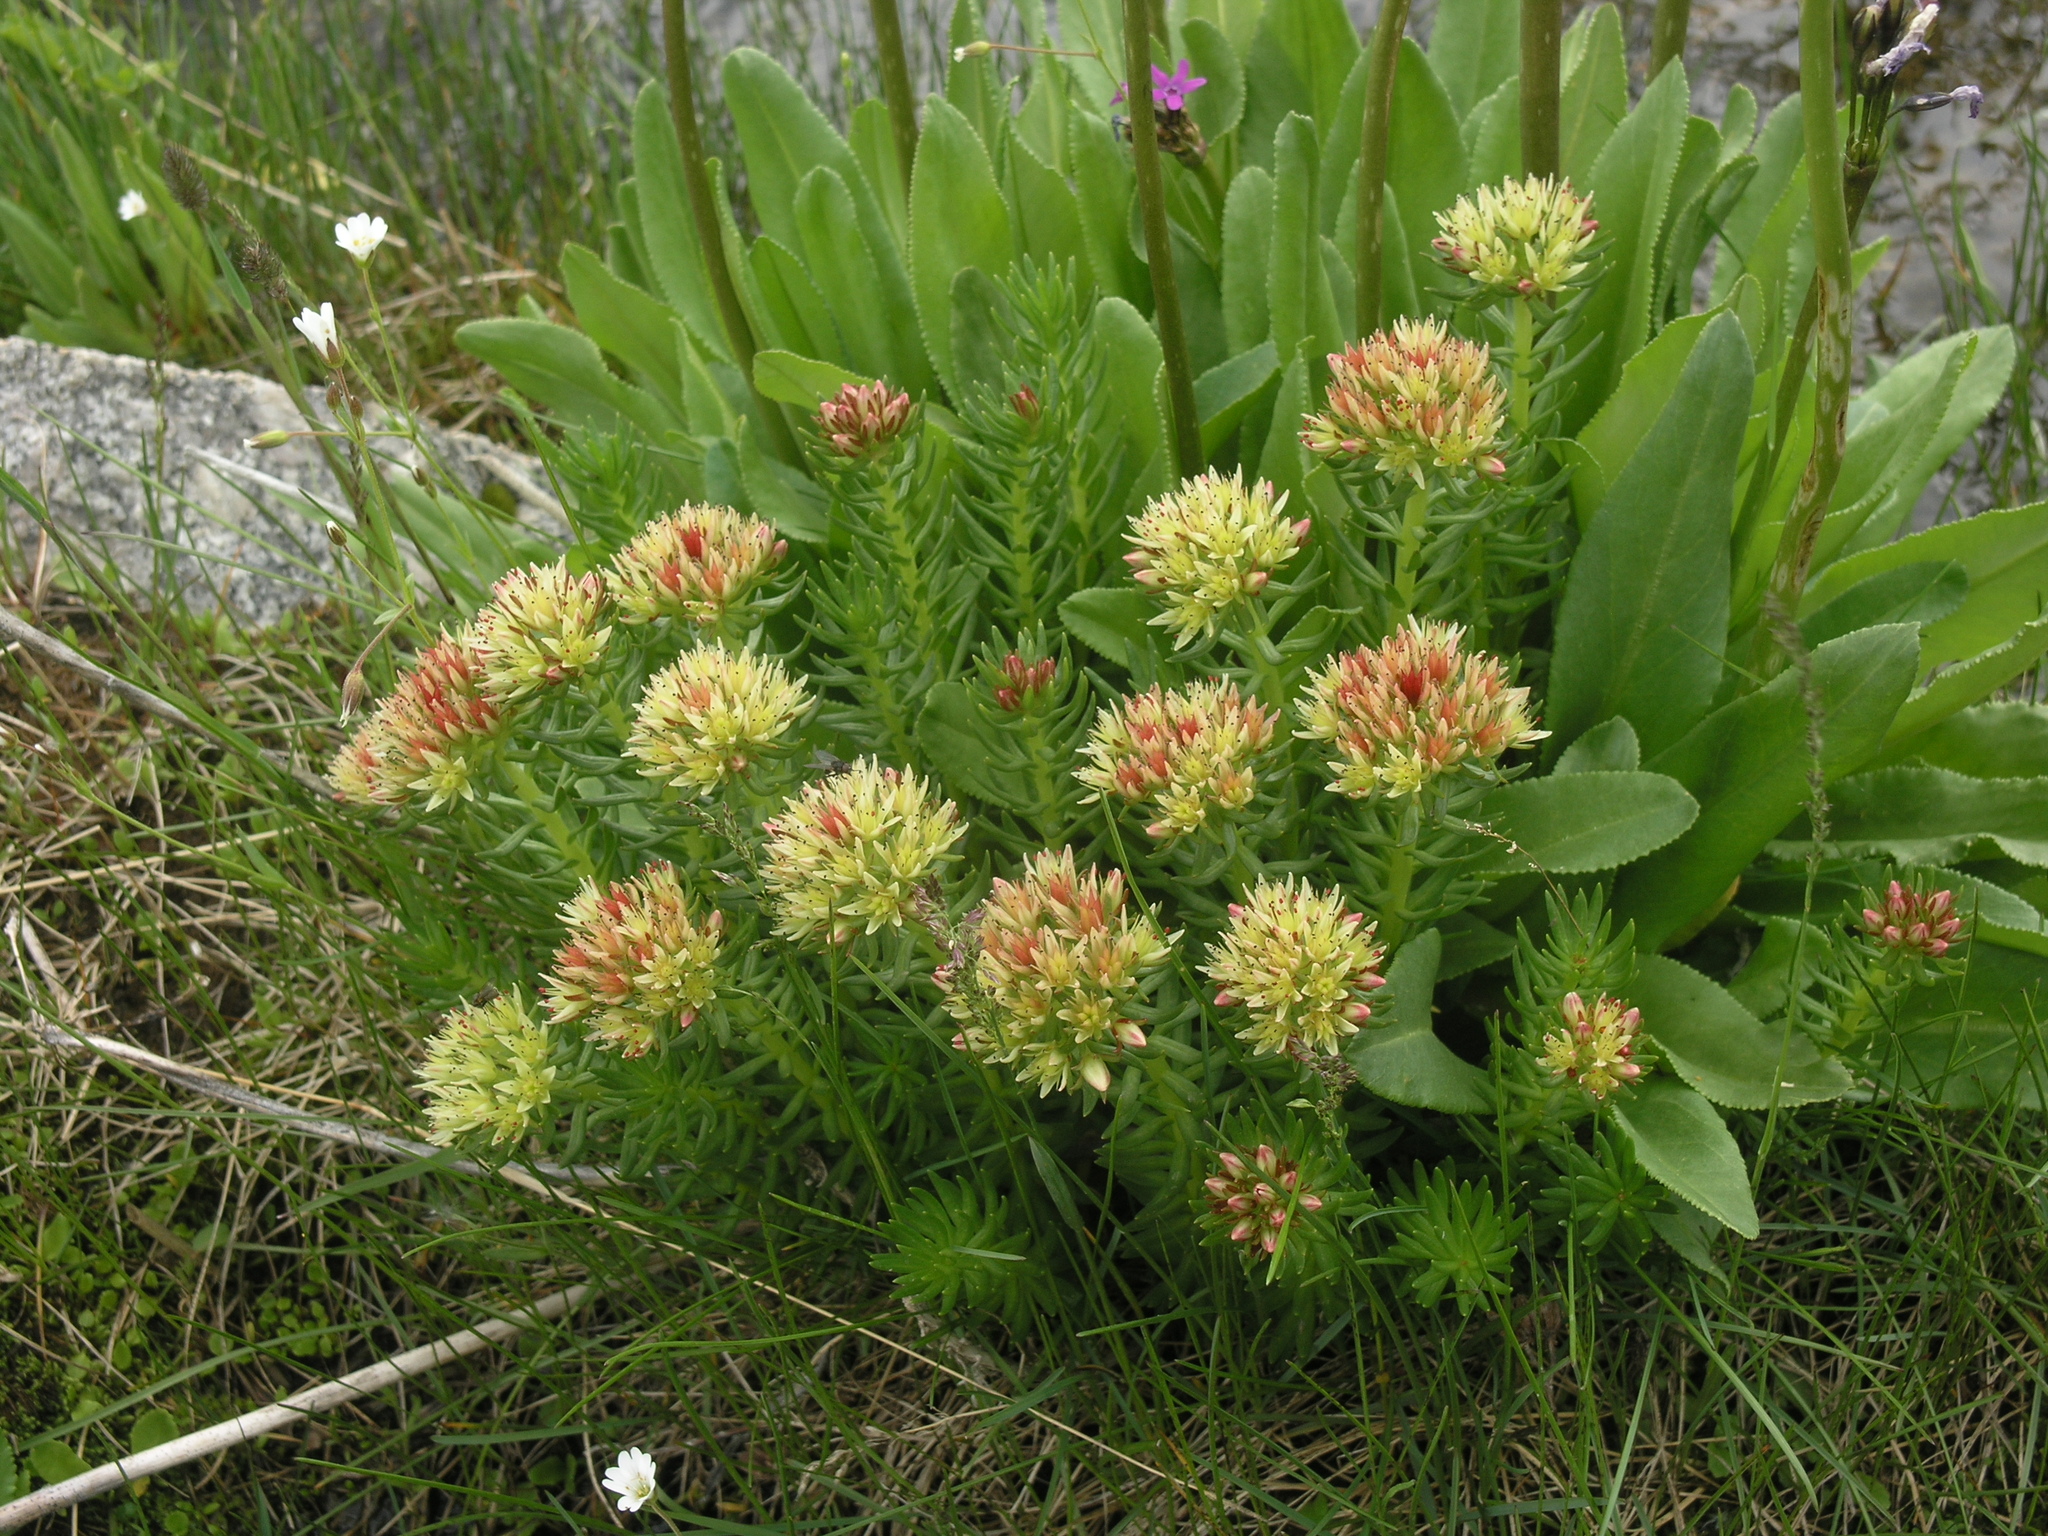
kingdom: Plantae
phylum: Tracheophyta
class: Magnoliopsida
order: Saxifragales
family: Crassulaceae
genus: Rhodiola
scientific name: Rhodiola algida
